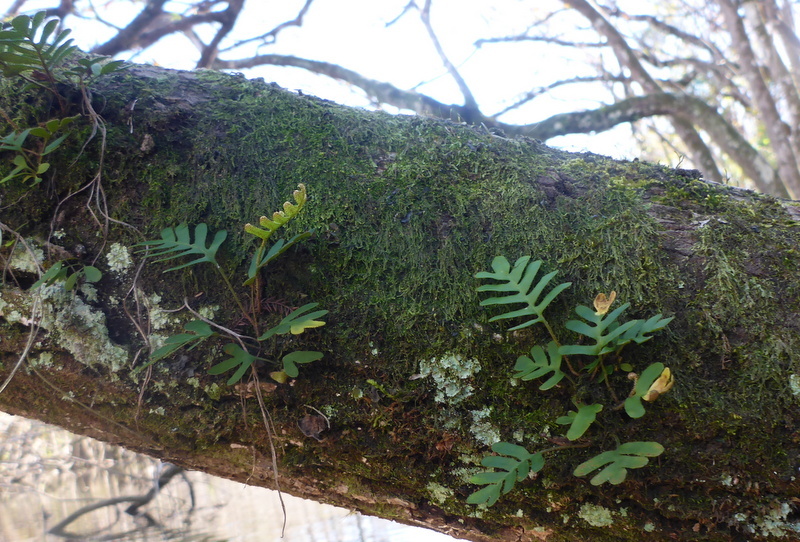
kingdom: Plantae
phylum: Tracheophyta
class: Polypodiopsida
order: Polypodiales
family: Polypodiaceae
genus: Pleopeltis
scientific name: Pleopeltis michauxiana
